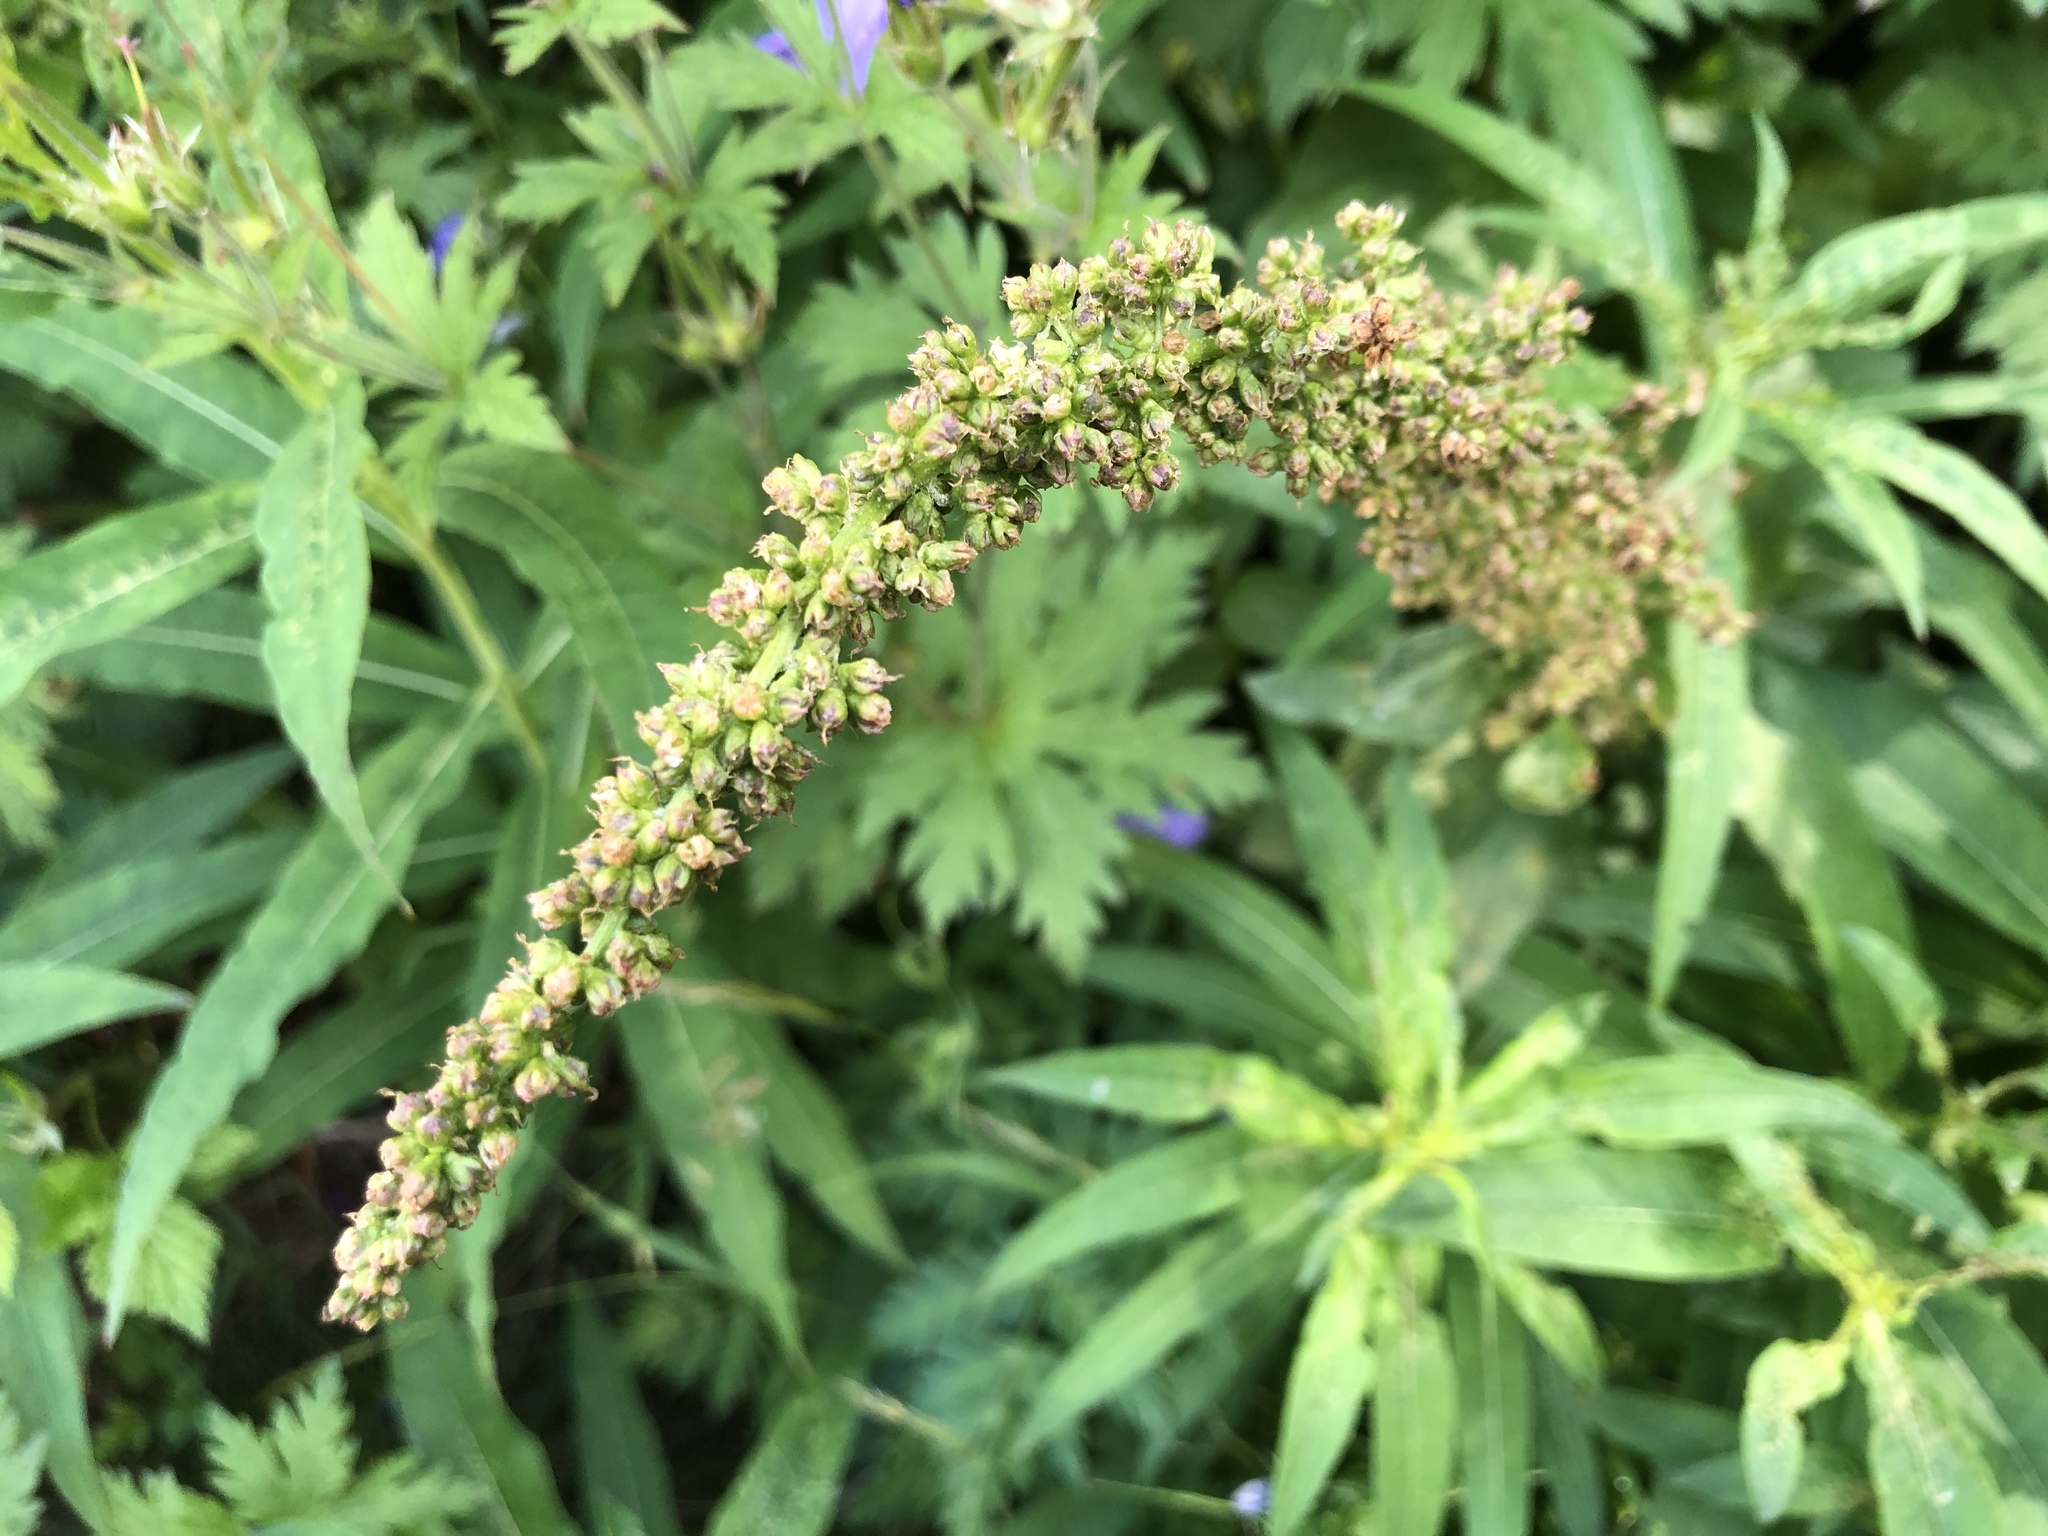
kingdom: Plantae
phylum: Tracheophyta
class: Magnoliopsida
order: Caryophyllales
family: Amaranthaceae
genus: Blitum
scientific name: Blitum bonus-henricus
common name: Good king henry
